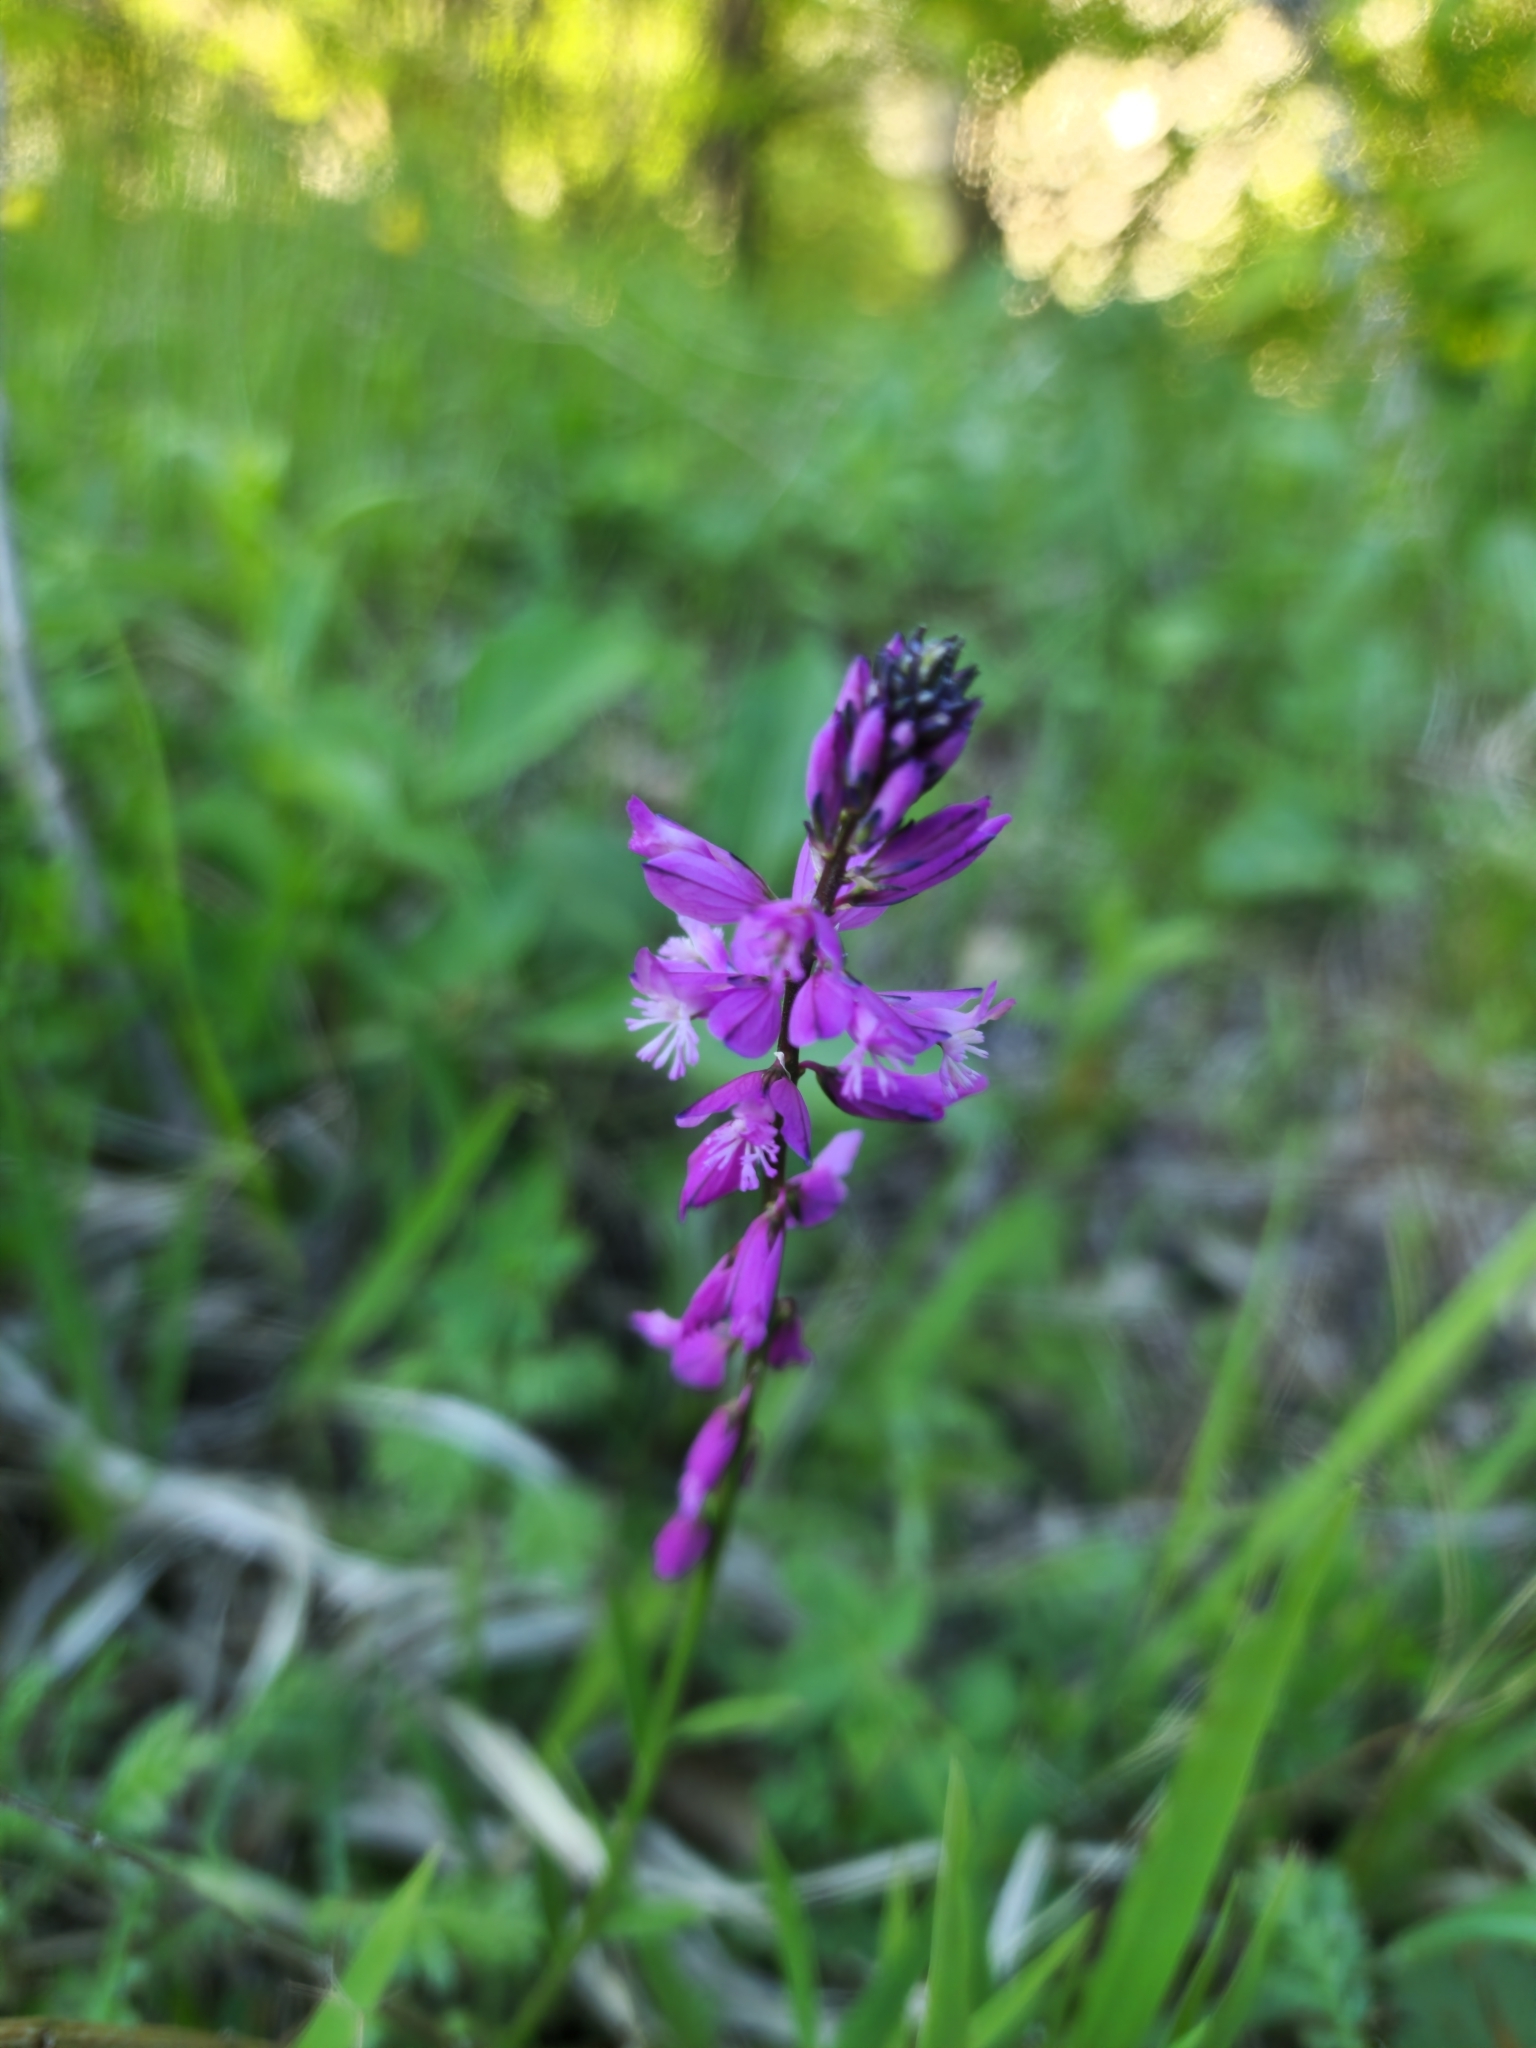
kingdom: Plantae
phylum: Tracheophyta
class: Magnoliopsida
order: Fabales
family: Polygalaceae
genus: Polygala
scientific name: Polygala major
